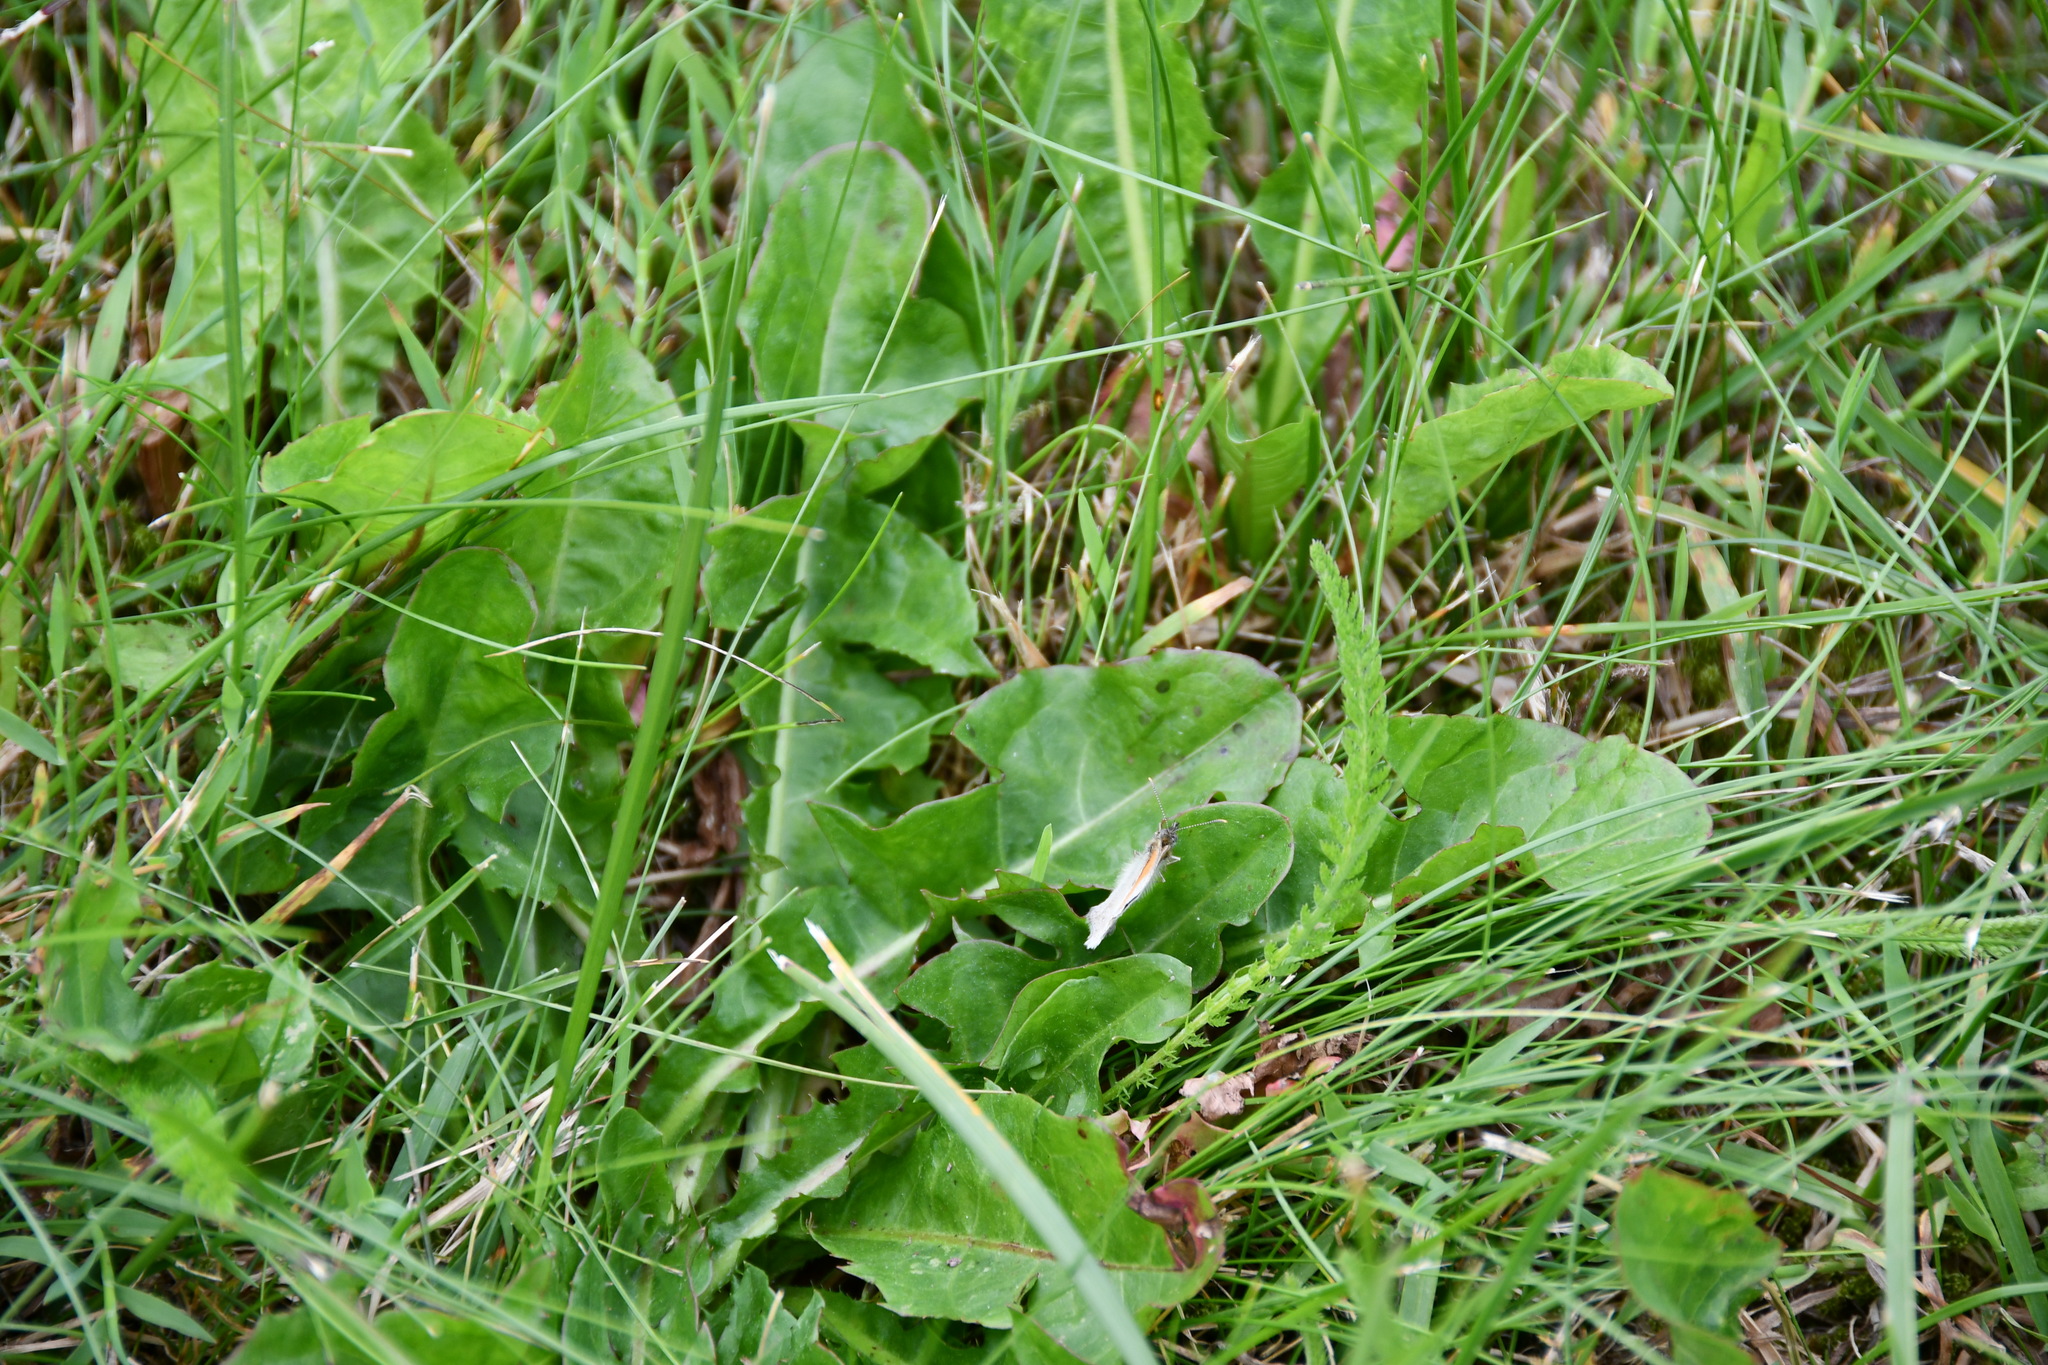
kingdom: Animalia
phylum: Arthropoda
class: Insecta
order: Lepidoptera
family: Nymphalidae
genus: Coenonympha
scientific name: Coenonympha pamphilus
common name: Small heath
